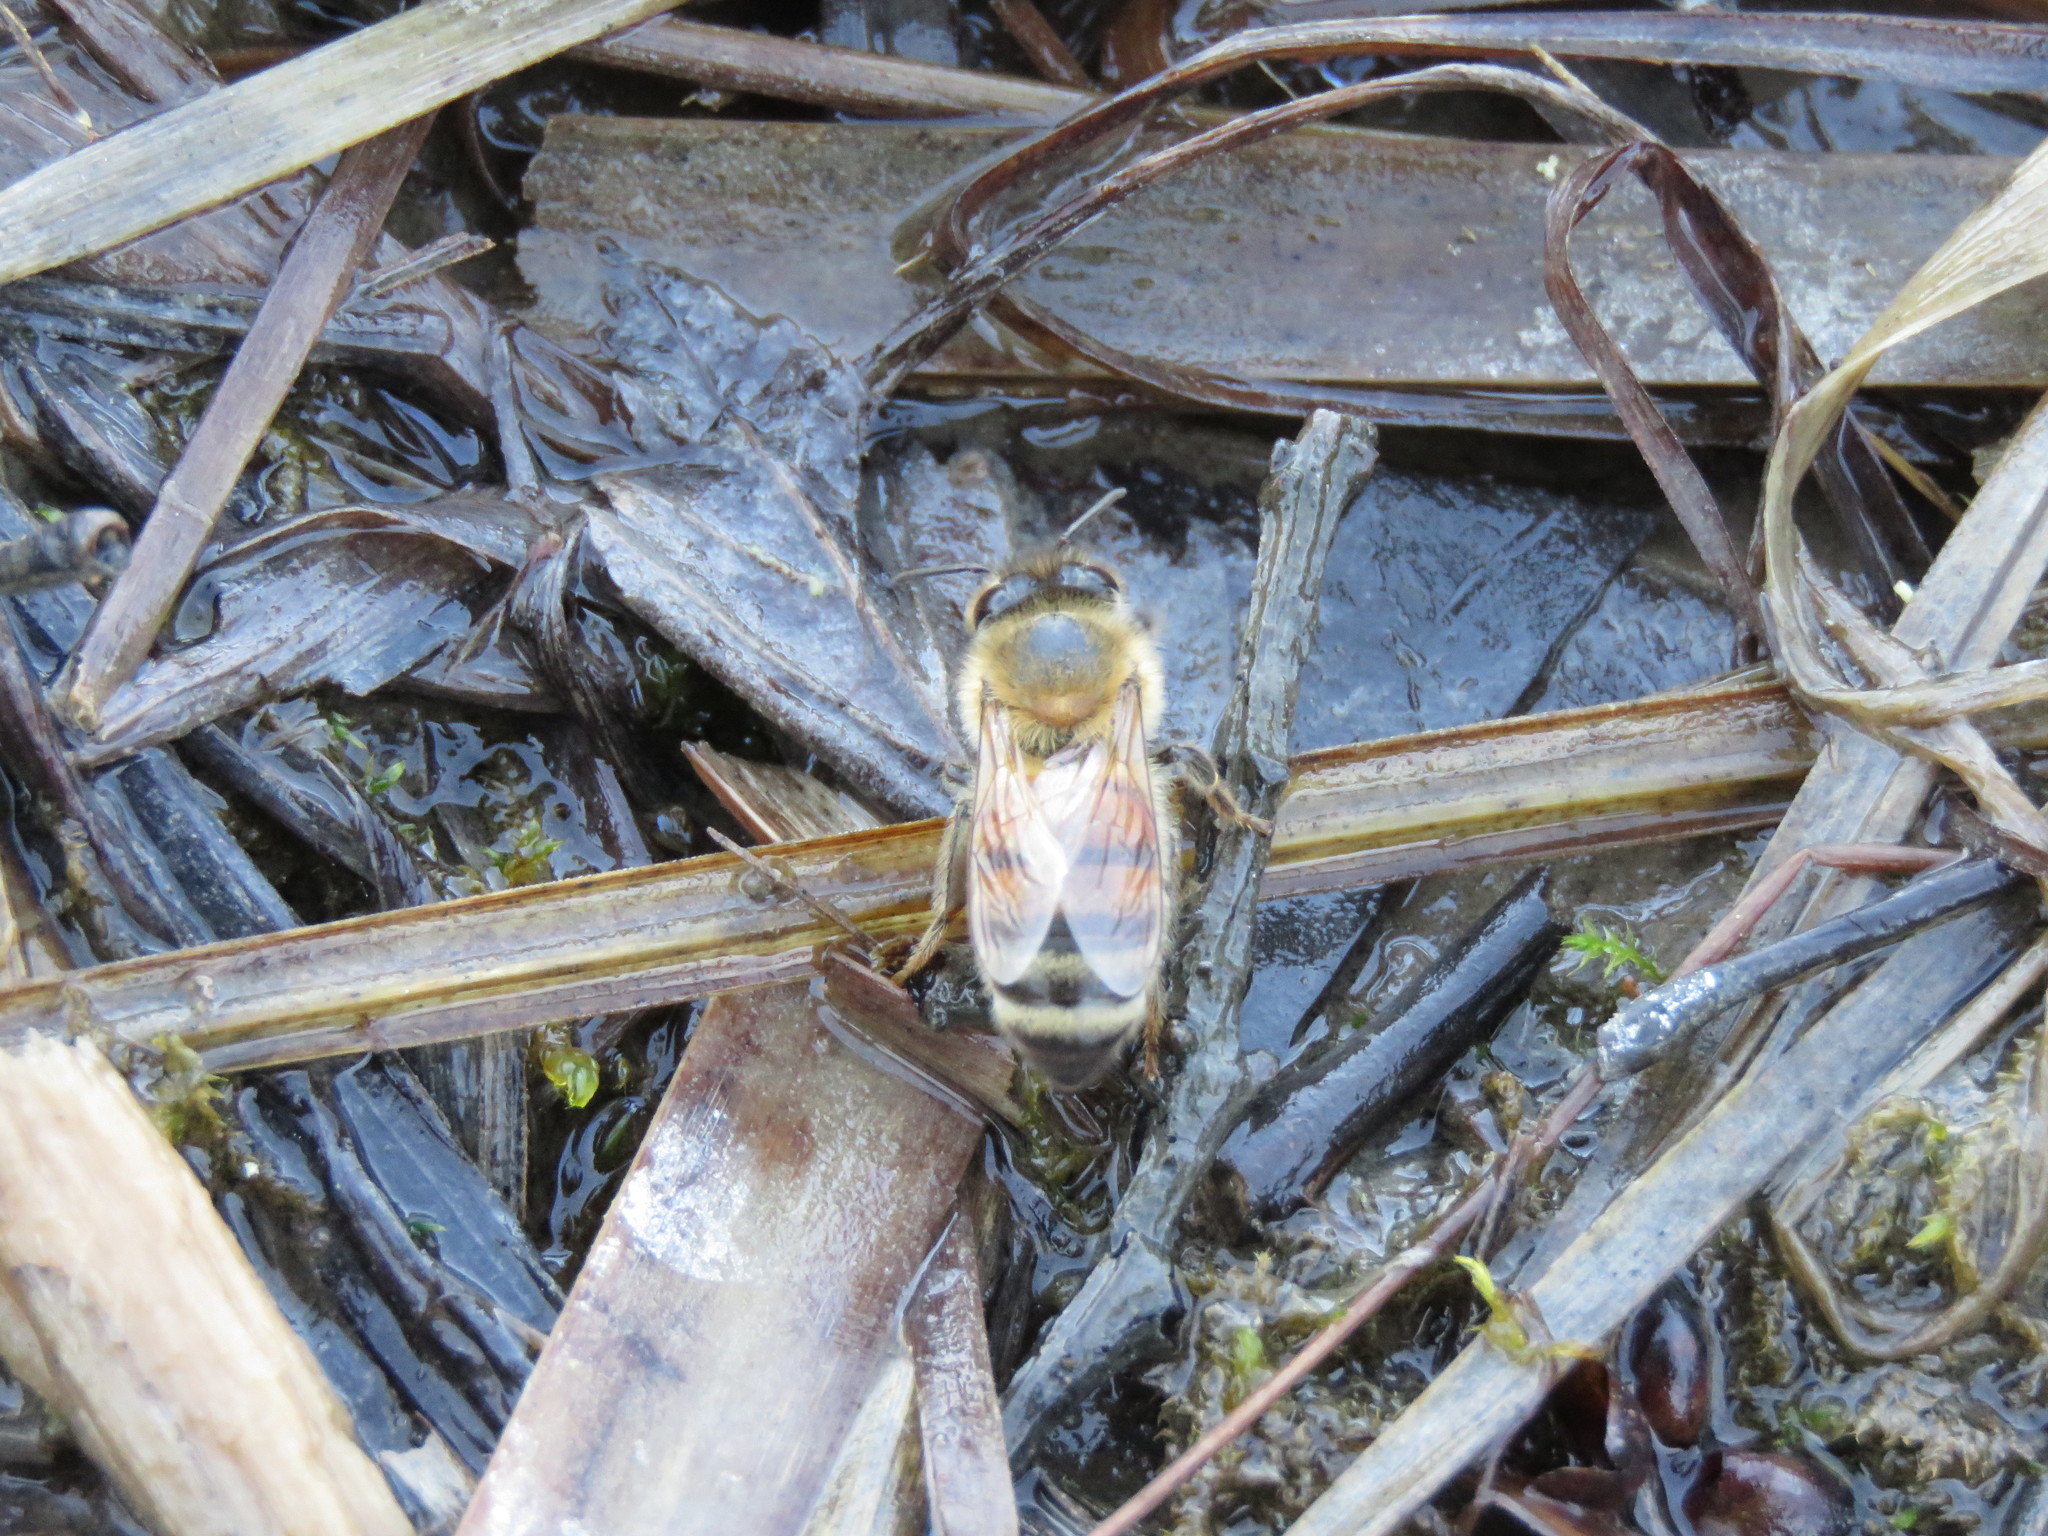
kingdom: Animalia
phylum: Arthropoda
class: Insecta
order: Hymenoptera
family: Apidae
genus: Apis
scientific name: Apis mellifera
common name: Honey bee
